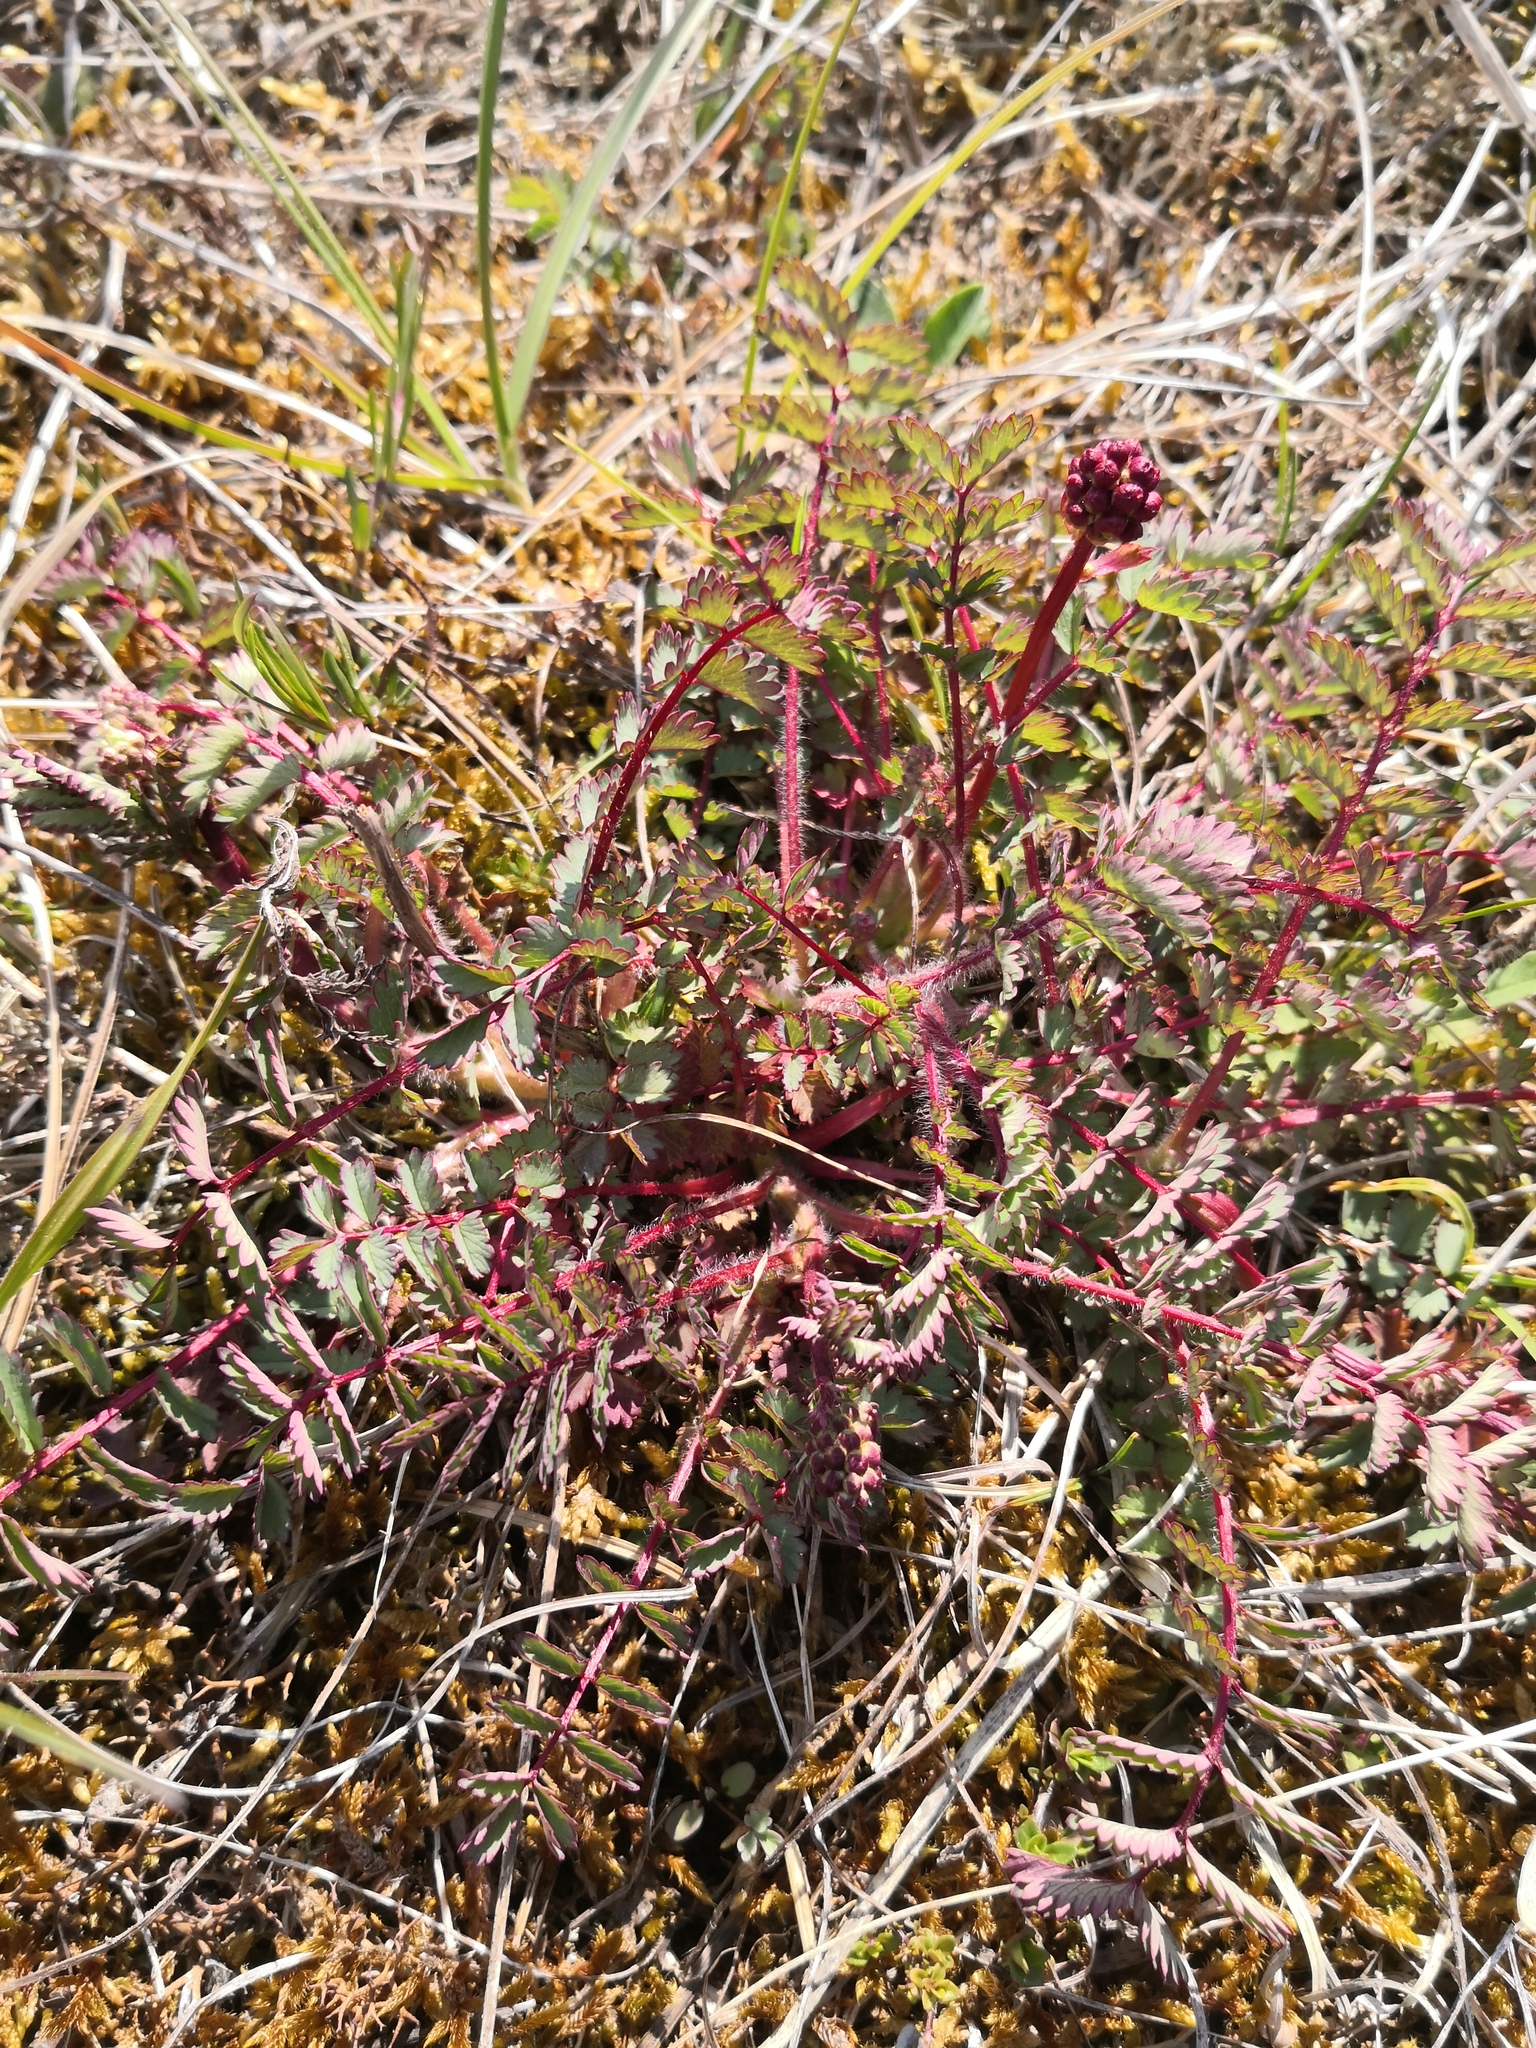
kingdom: Plantae
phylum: Tracheophyta
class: Magnoliopsida
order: Rosales
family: Rosaceae
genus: Poterium
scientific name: Poterium sanguisorba
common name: Salad burnet
